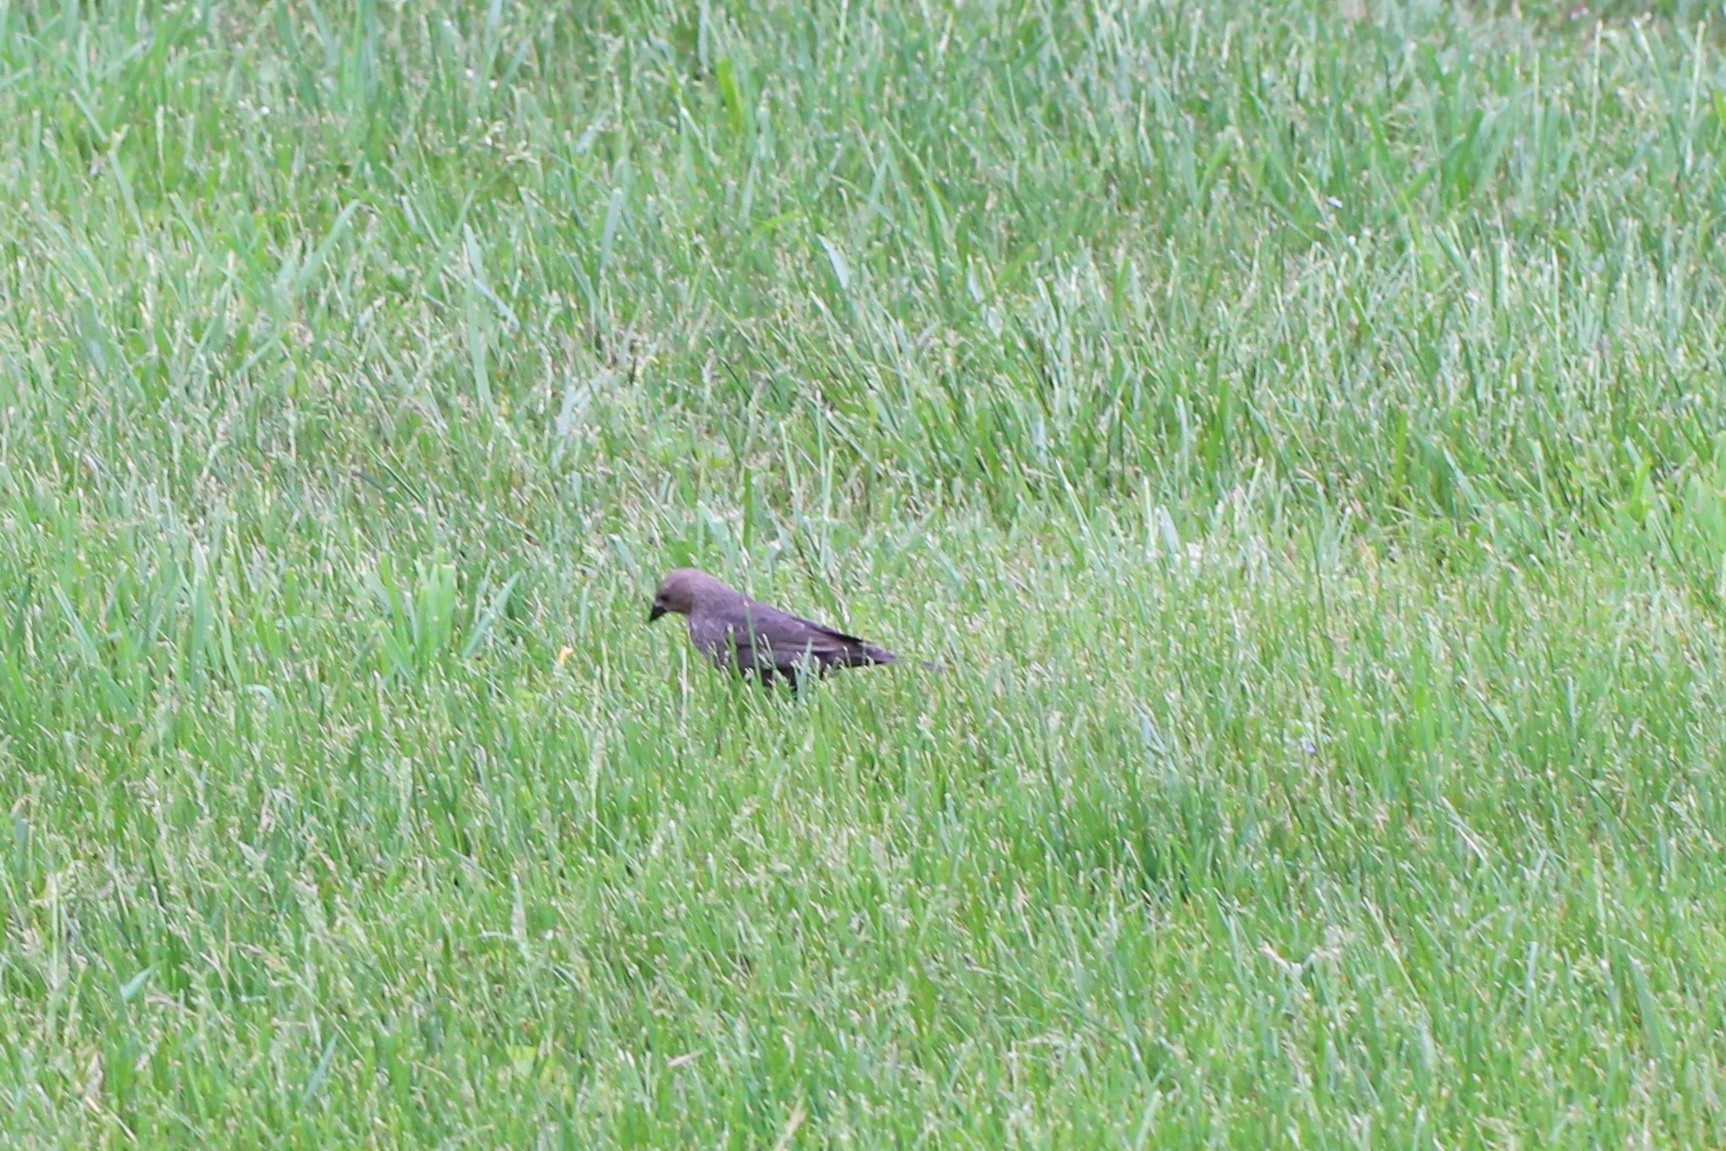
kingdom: Animalia
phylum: Chordata
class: Aves
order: Passeriformes
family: Icteridae
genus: Molothrus
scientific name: Molothrus ater
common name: Brown-headed cowbird
